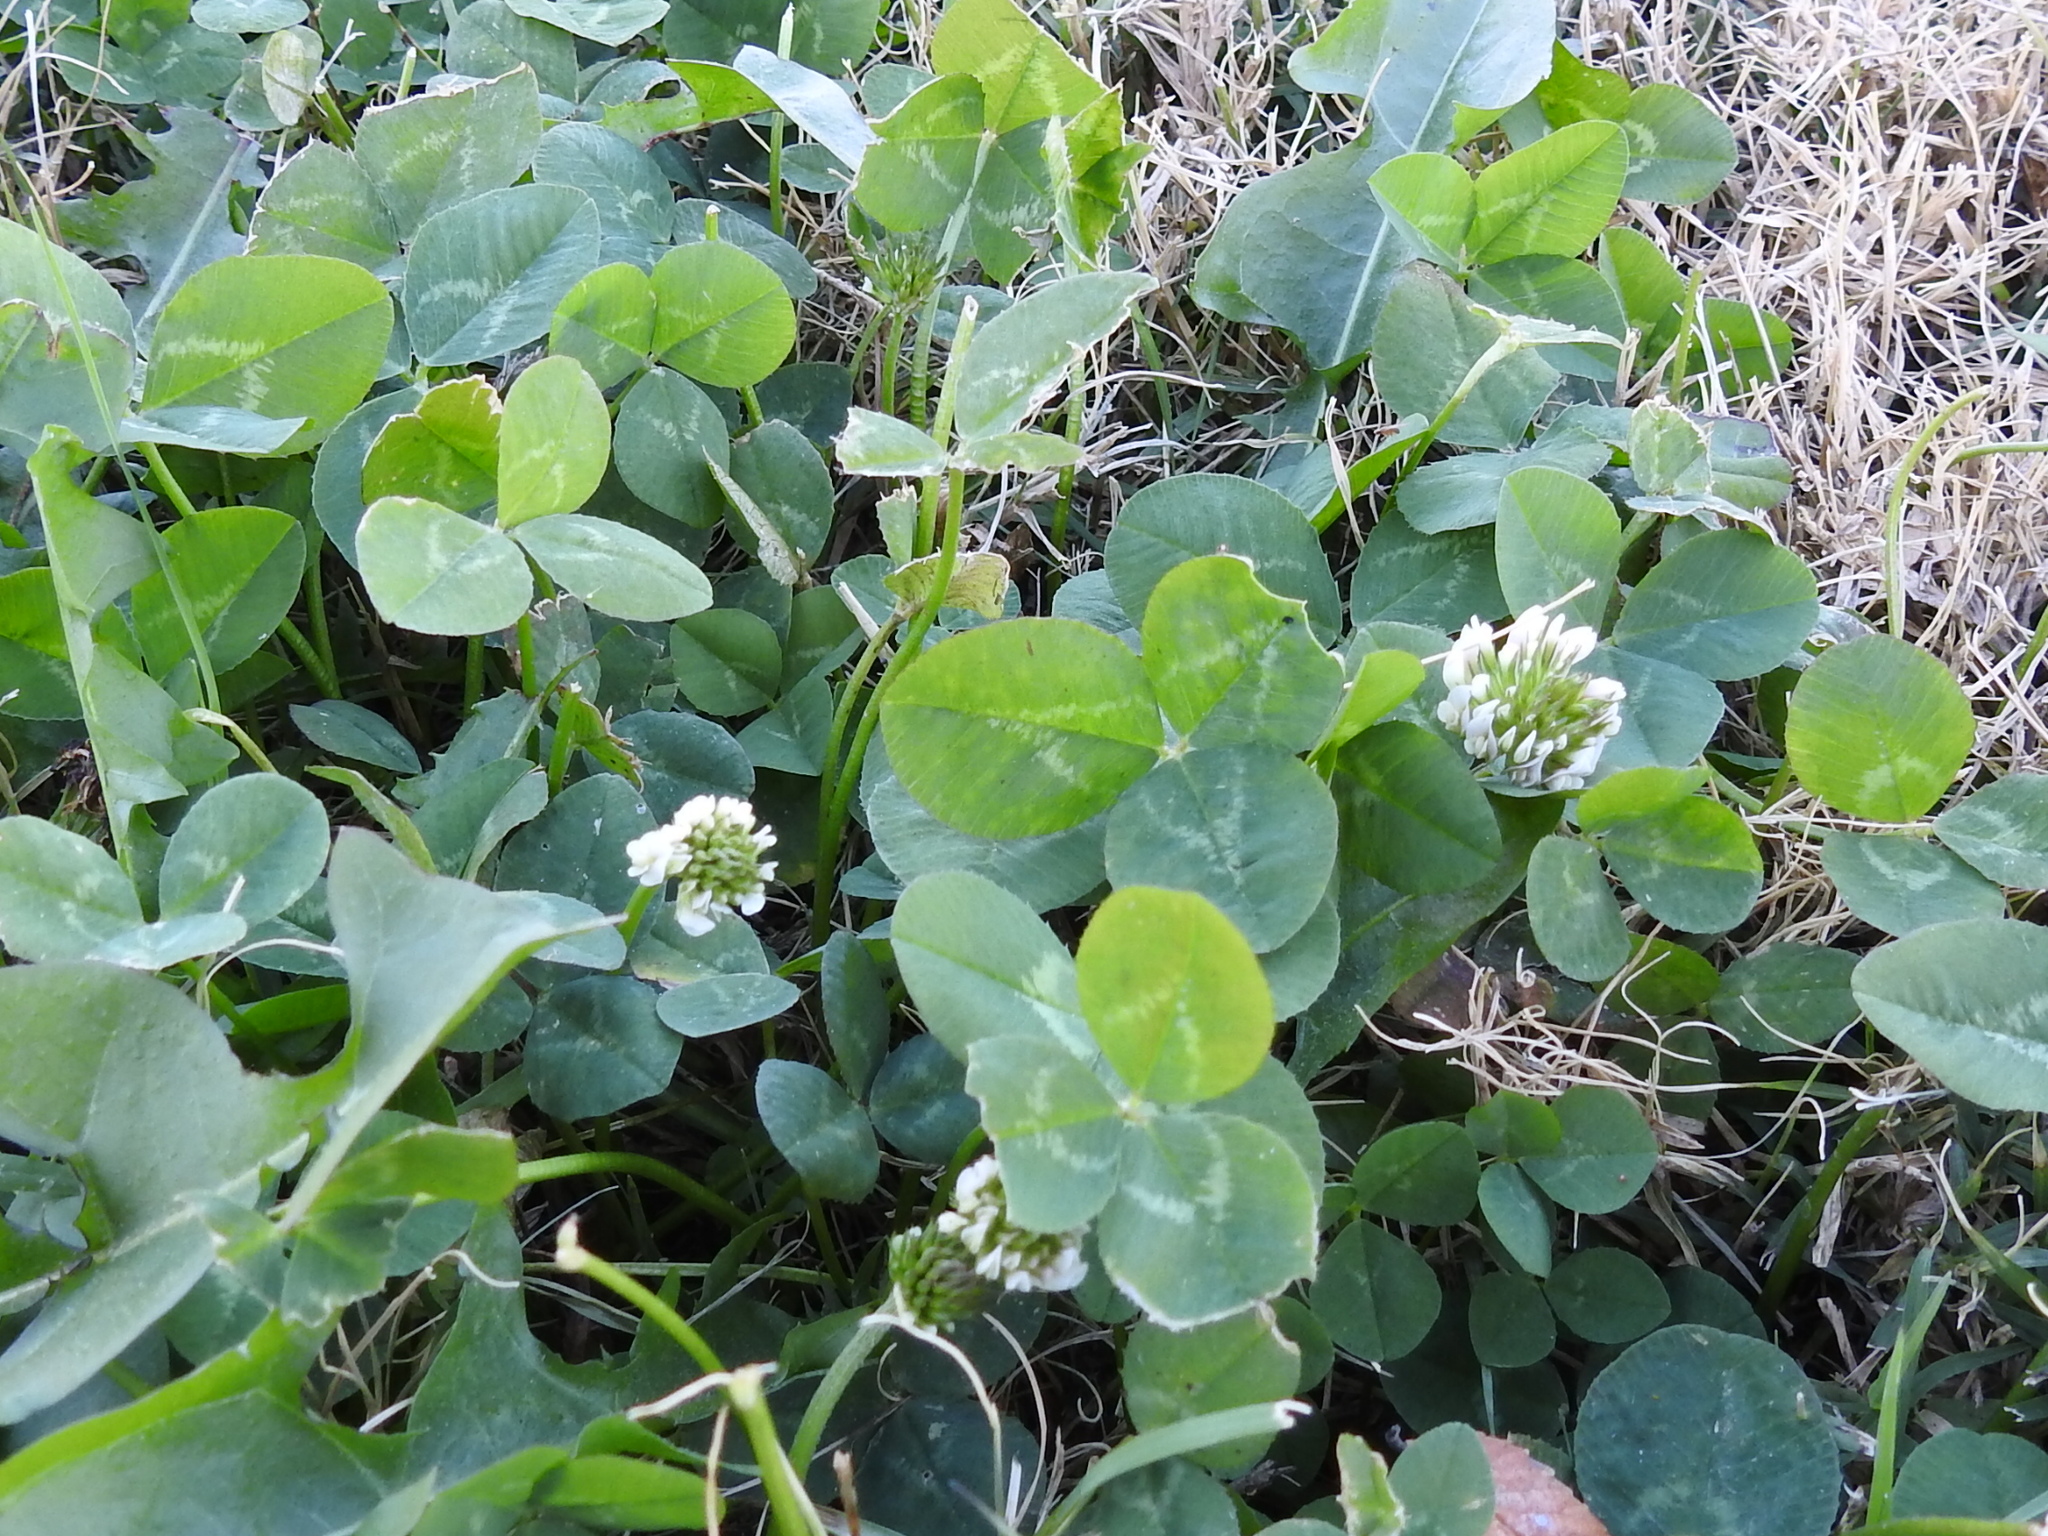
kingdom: Plantae
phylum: Tracheophyta
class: Magnoliopsida
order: Fabales
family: Fabaceae
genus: Trifolium
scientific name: Trifolium repens
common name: White clover
